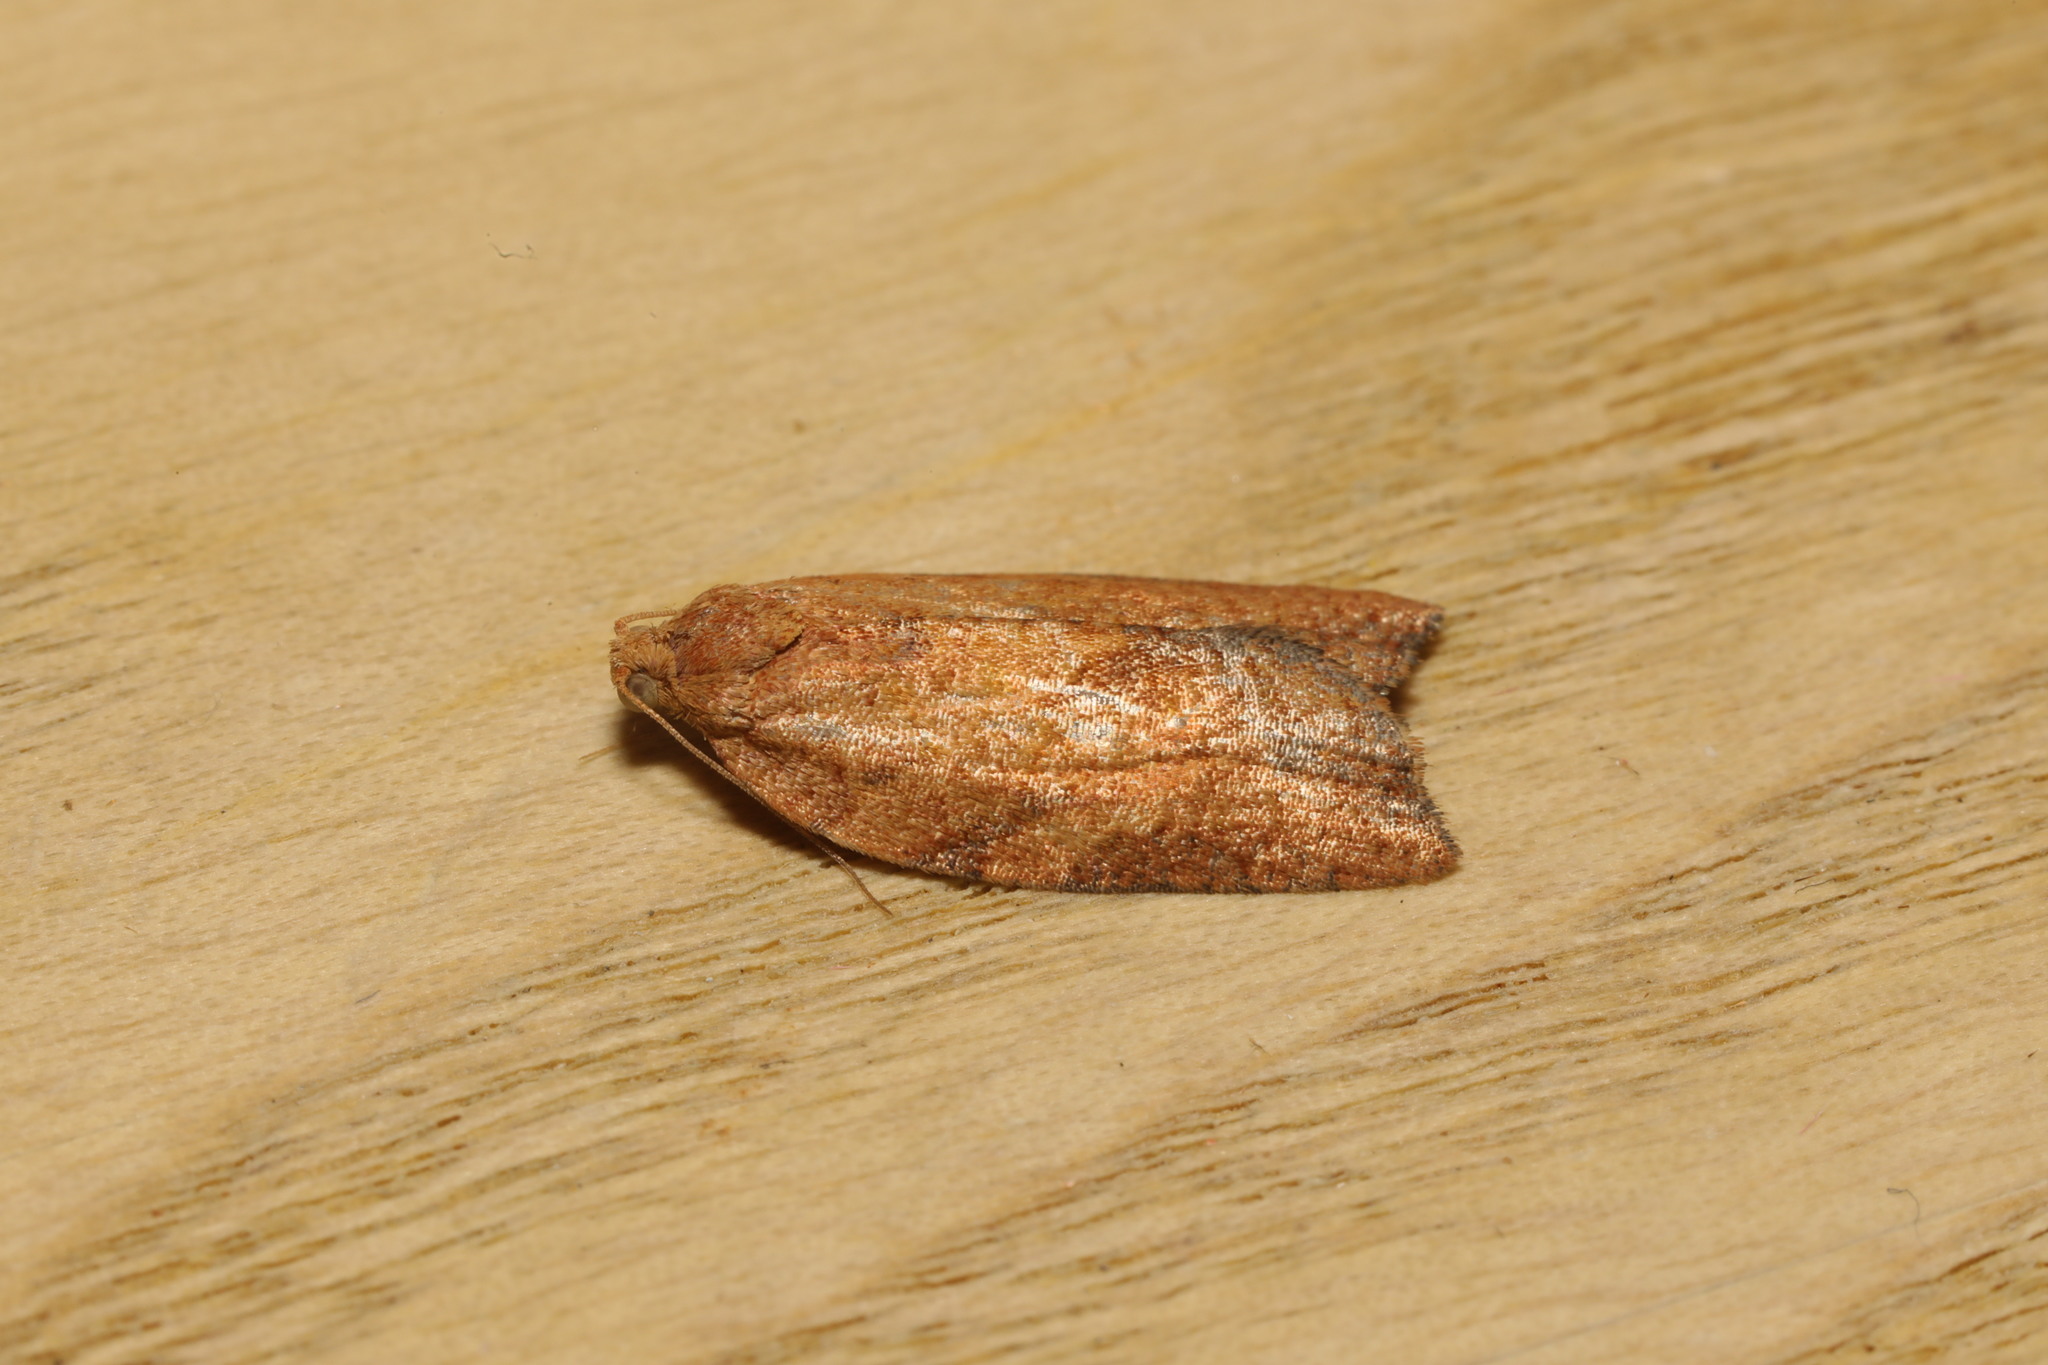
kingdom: Animalia
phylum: Arthropoda
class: Insecta
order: Lepidoptera
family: Tortricidae
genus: Epiphyas
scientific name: Epiphyas postvittana
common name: Light brown apple moth
